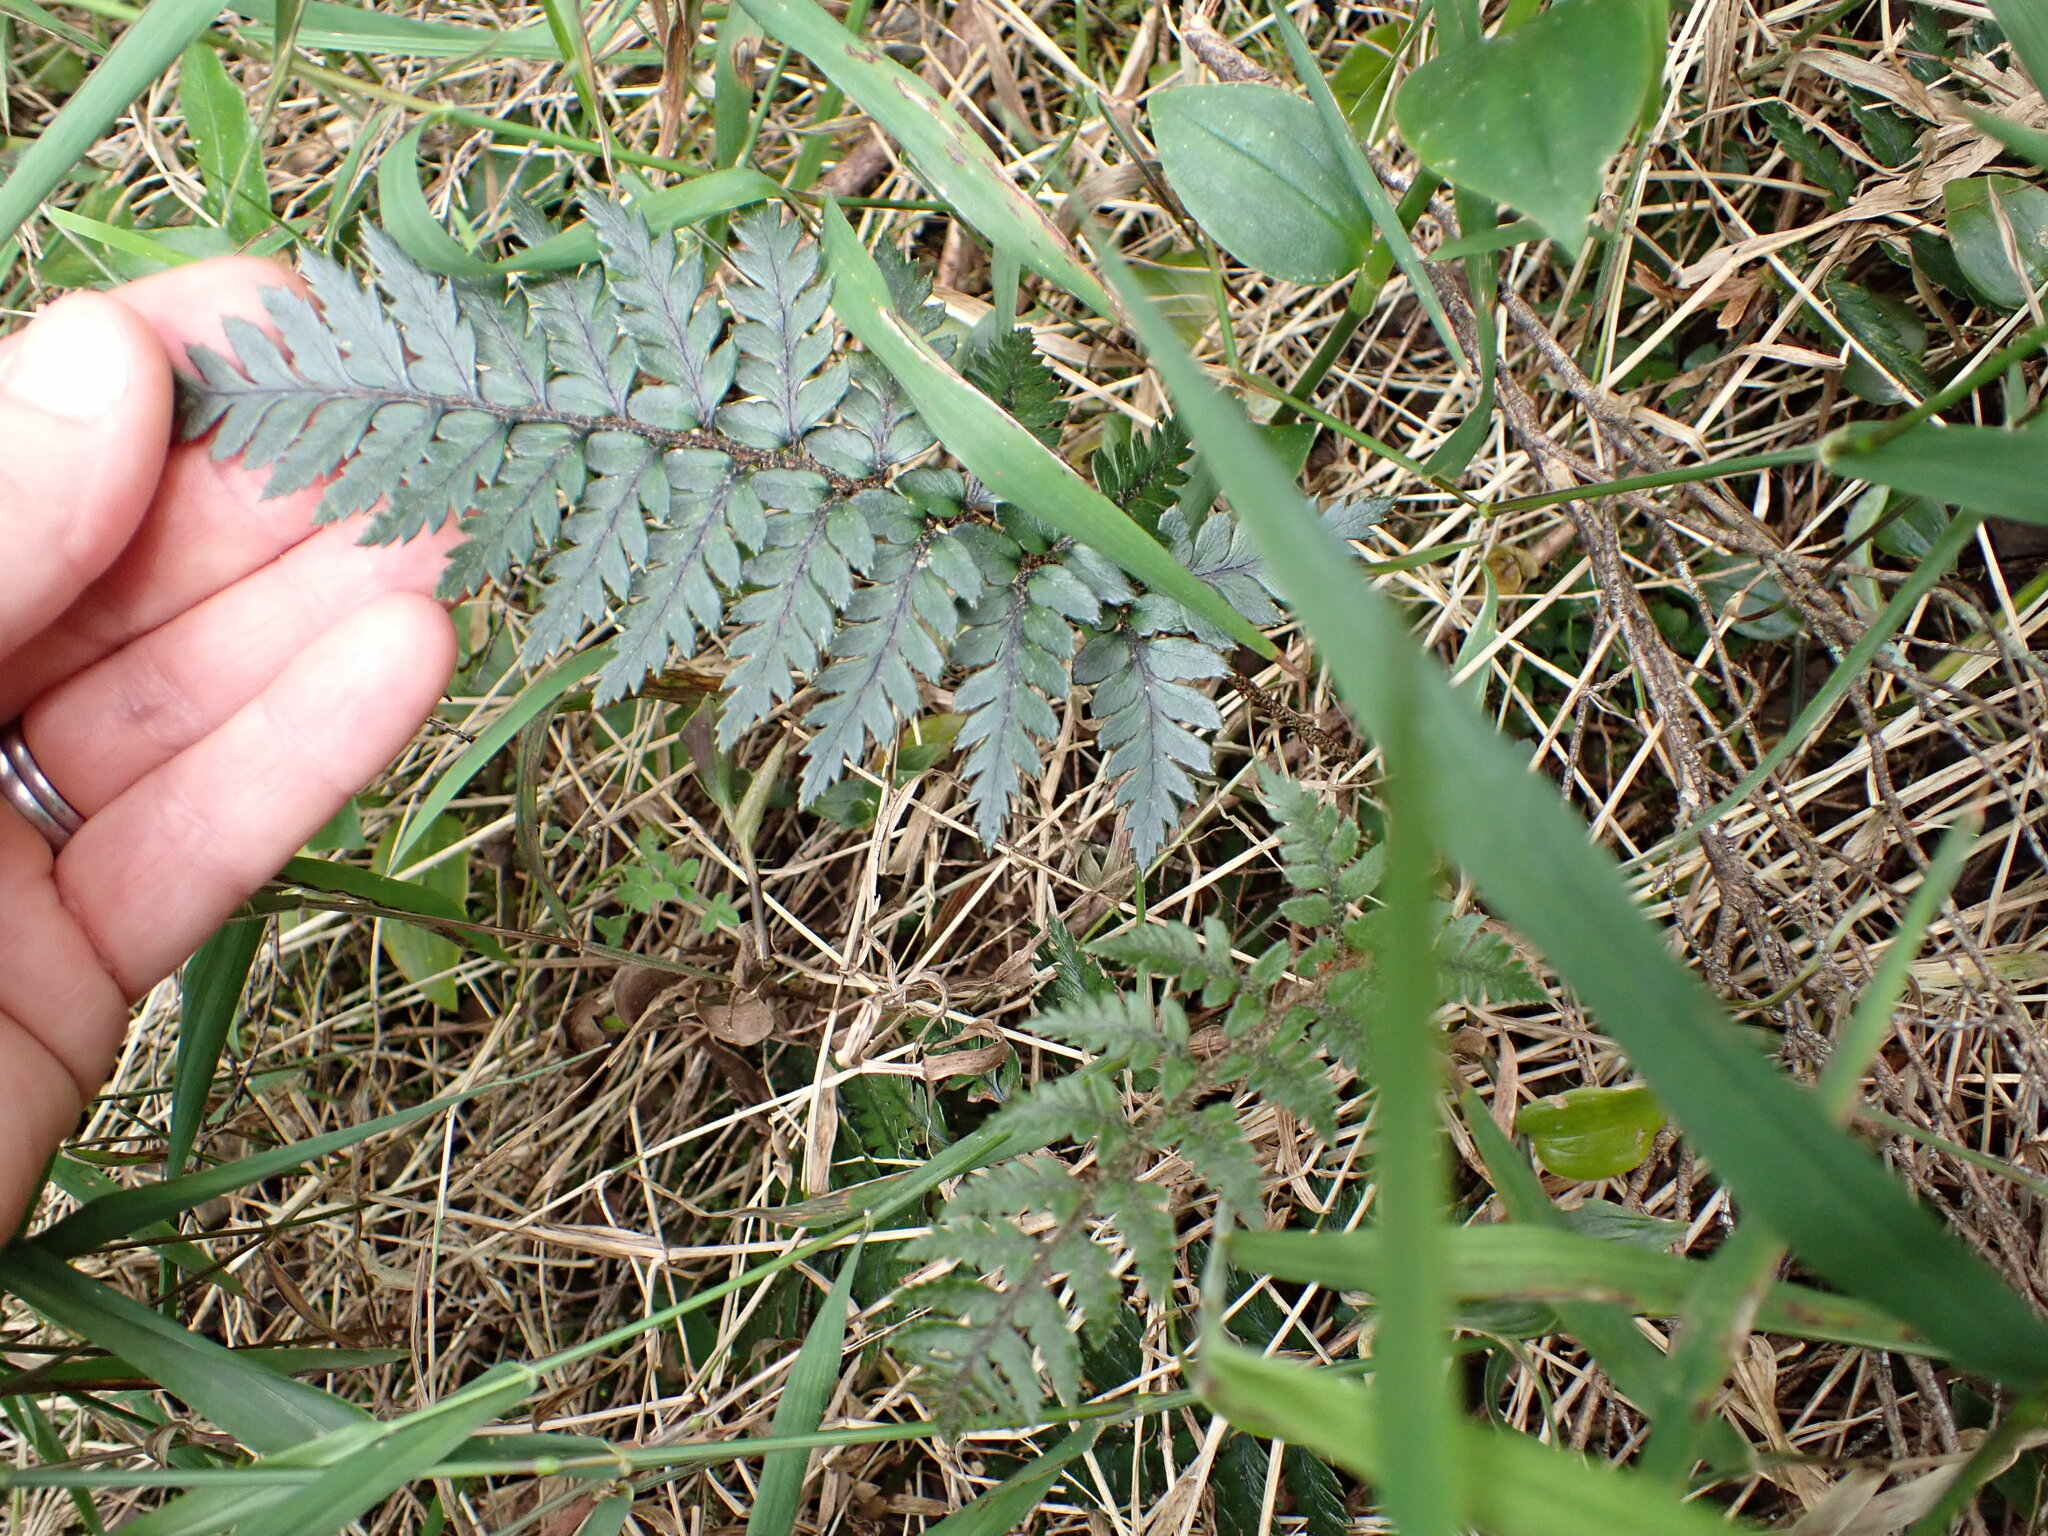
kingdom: Plantae
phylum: Tracheophyta
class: Polypodiopsida
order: Polypodiales
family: Dryopteridaceae
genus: Polystichum
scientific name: Polystichum neozelandicum
